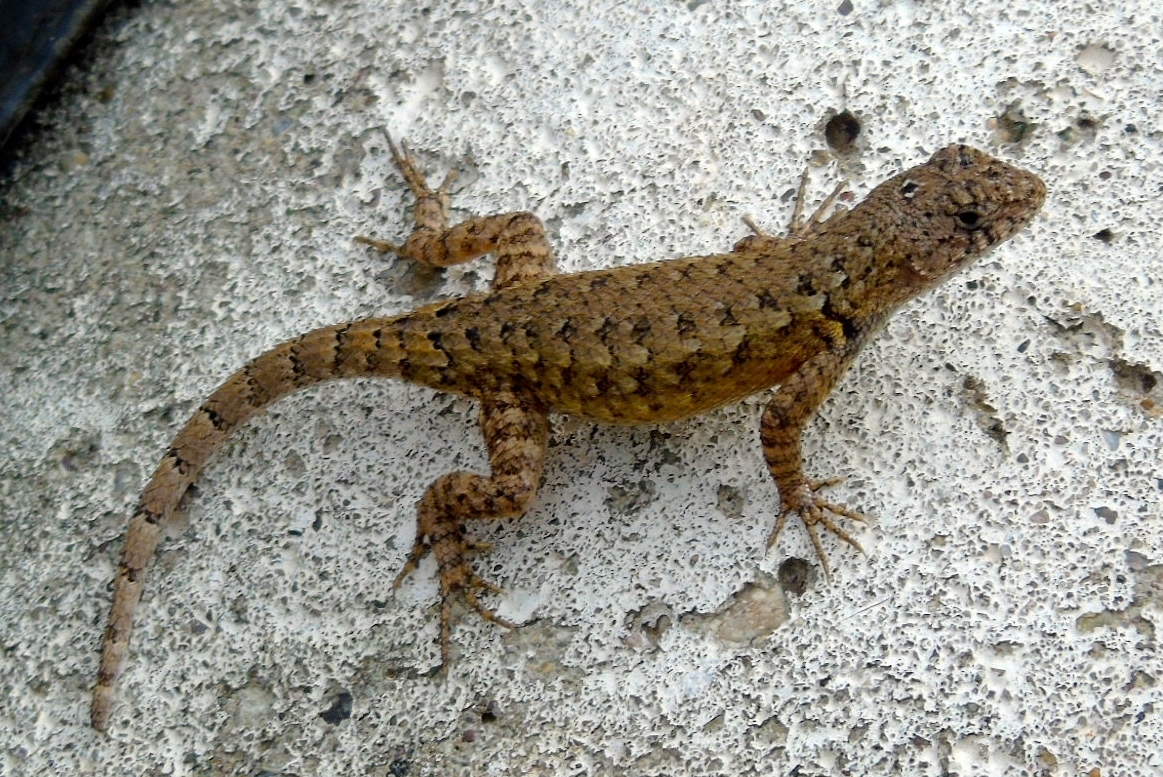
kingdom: Animalia
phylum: Chordata
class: Squamata
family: Phrynosomatidae
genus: Sceloporus
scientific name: Sceloporus nelsoni
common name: Nelson's spiny lizard
